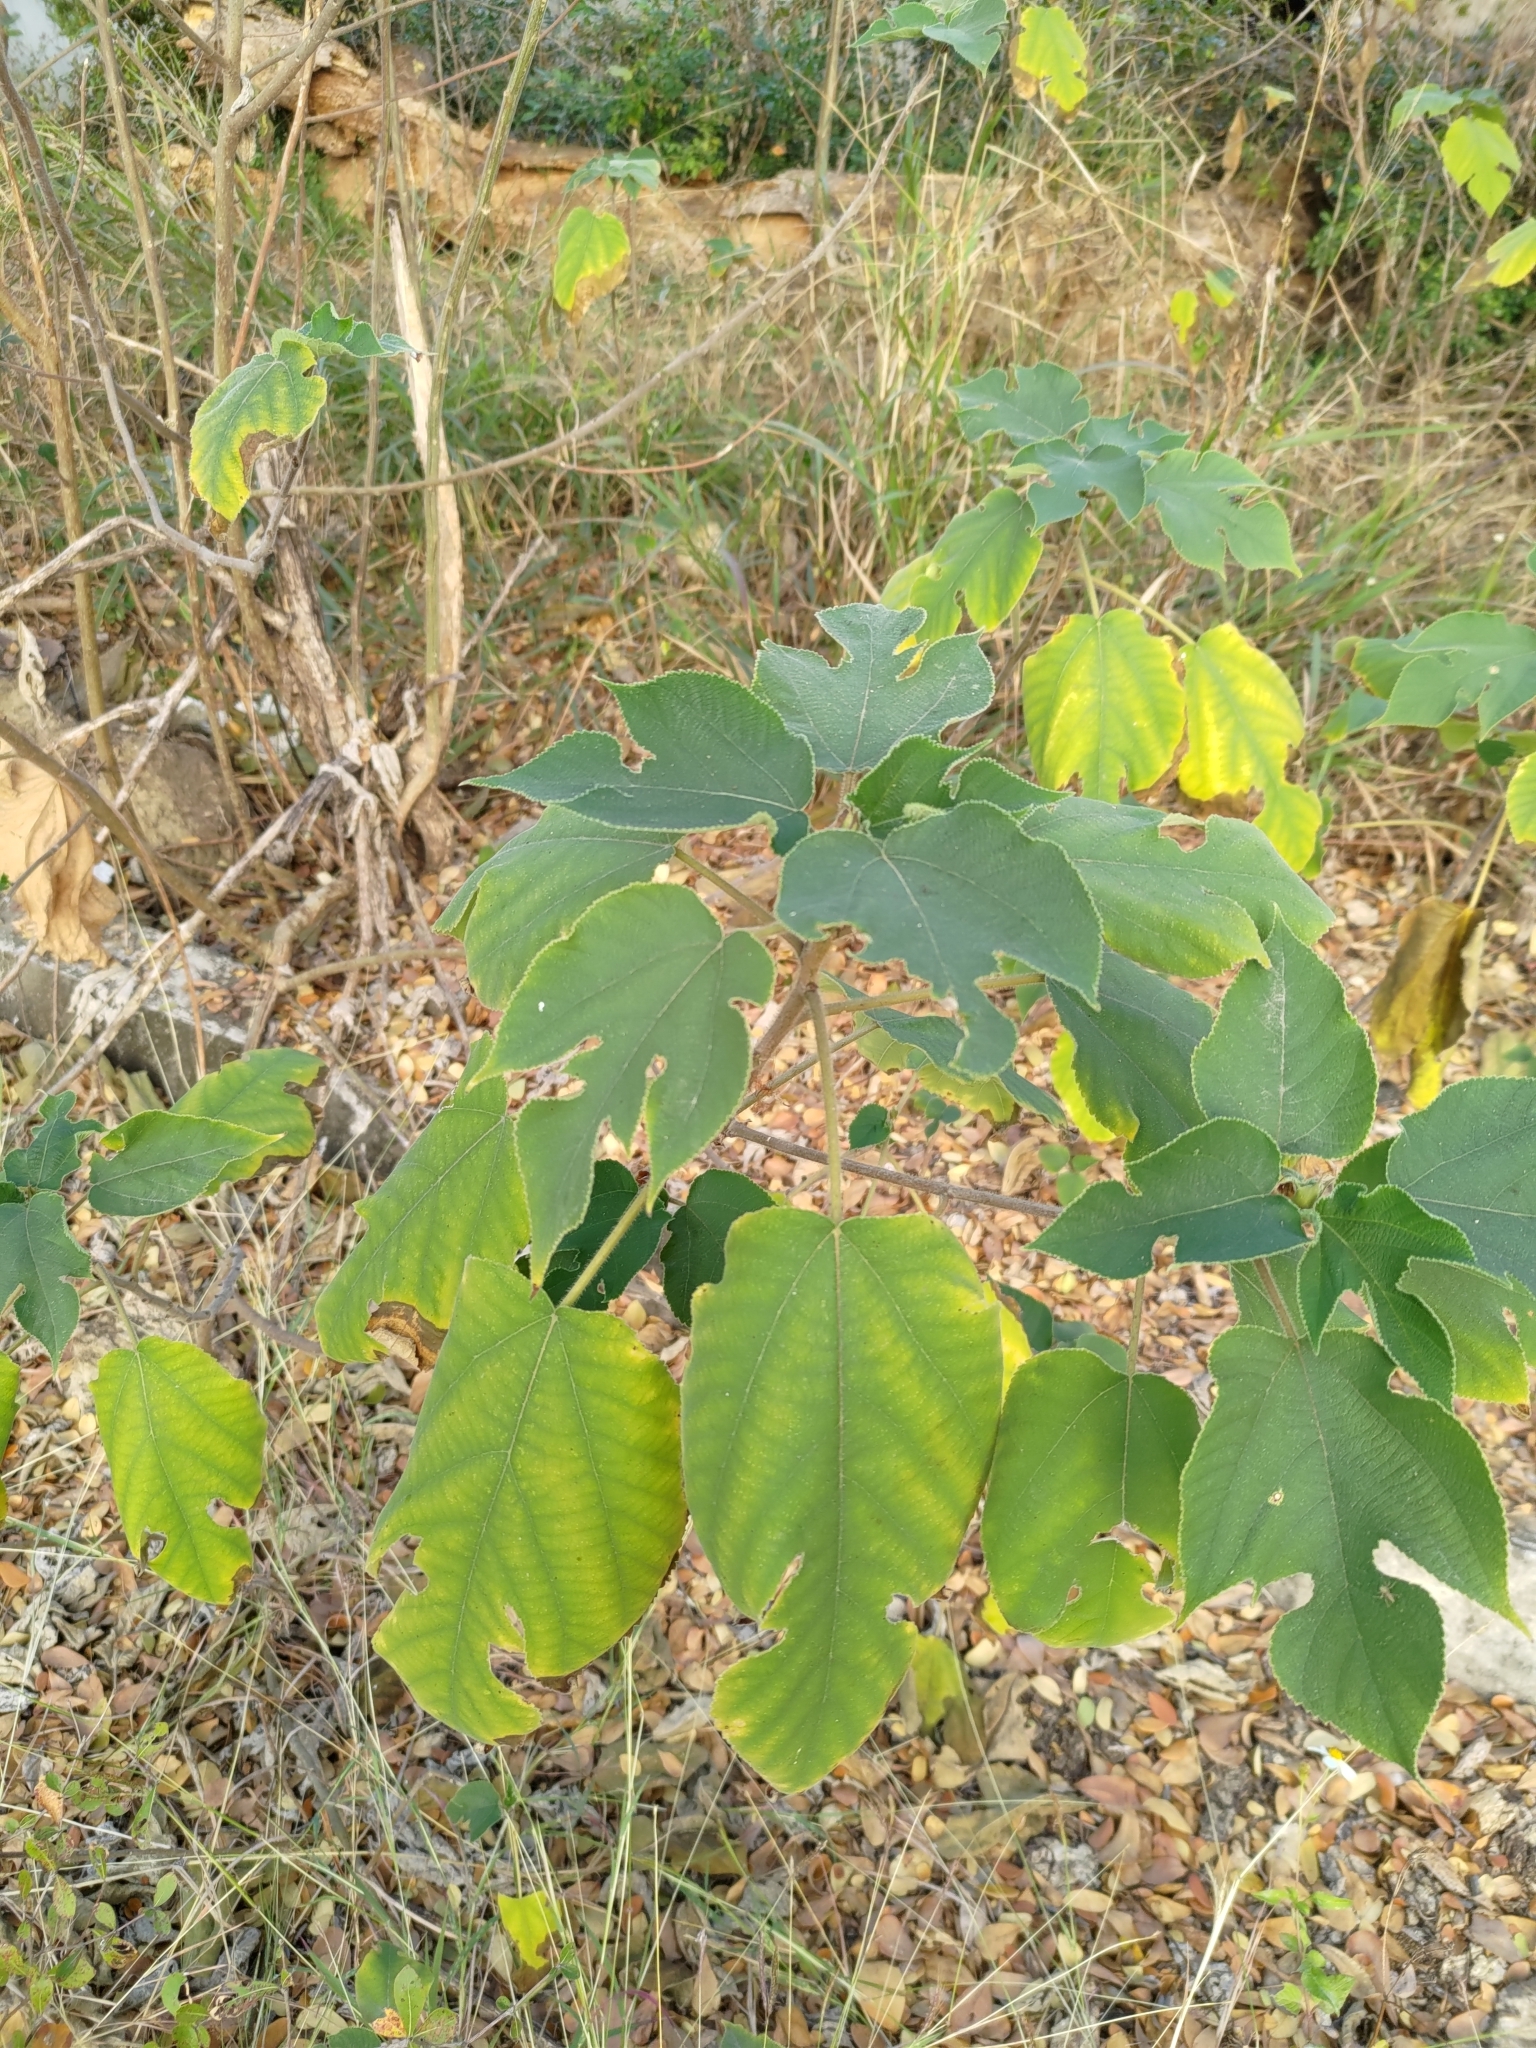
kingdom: Plantae
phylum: Tracheophyta
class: Magnoliopsida
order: Rosales
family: Moraceae
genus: Broussonetia
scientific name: Broussonetia papyrifera
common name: Paper mulberry
